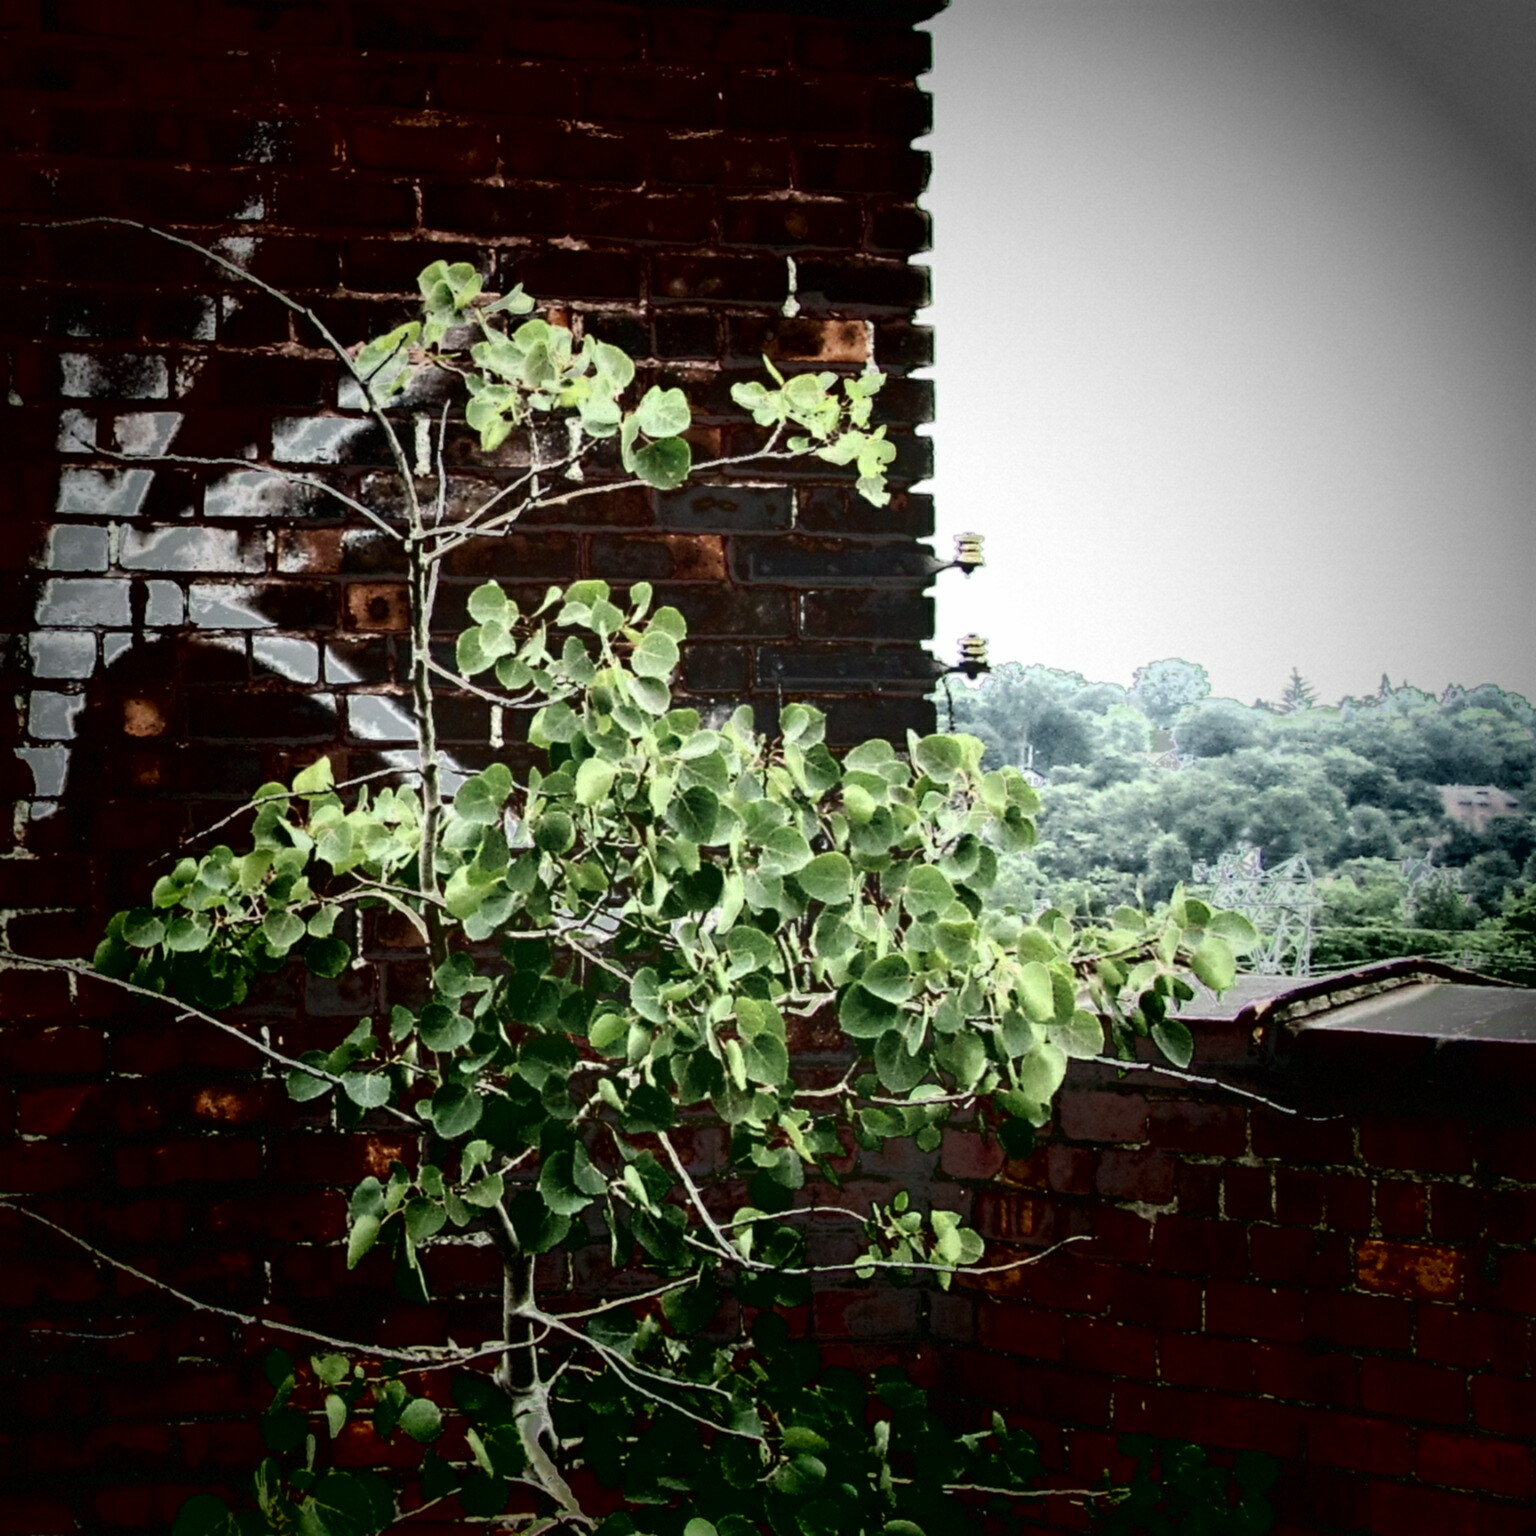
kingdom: Plantae
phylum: Tracheophyta
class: Magnoliopsida
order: Malpighiales
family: Salicaceae
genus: Populus
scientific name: Populus tremuloides
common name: Quaking aspen
